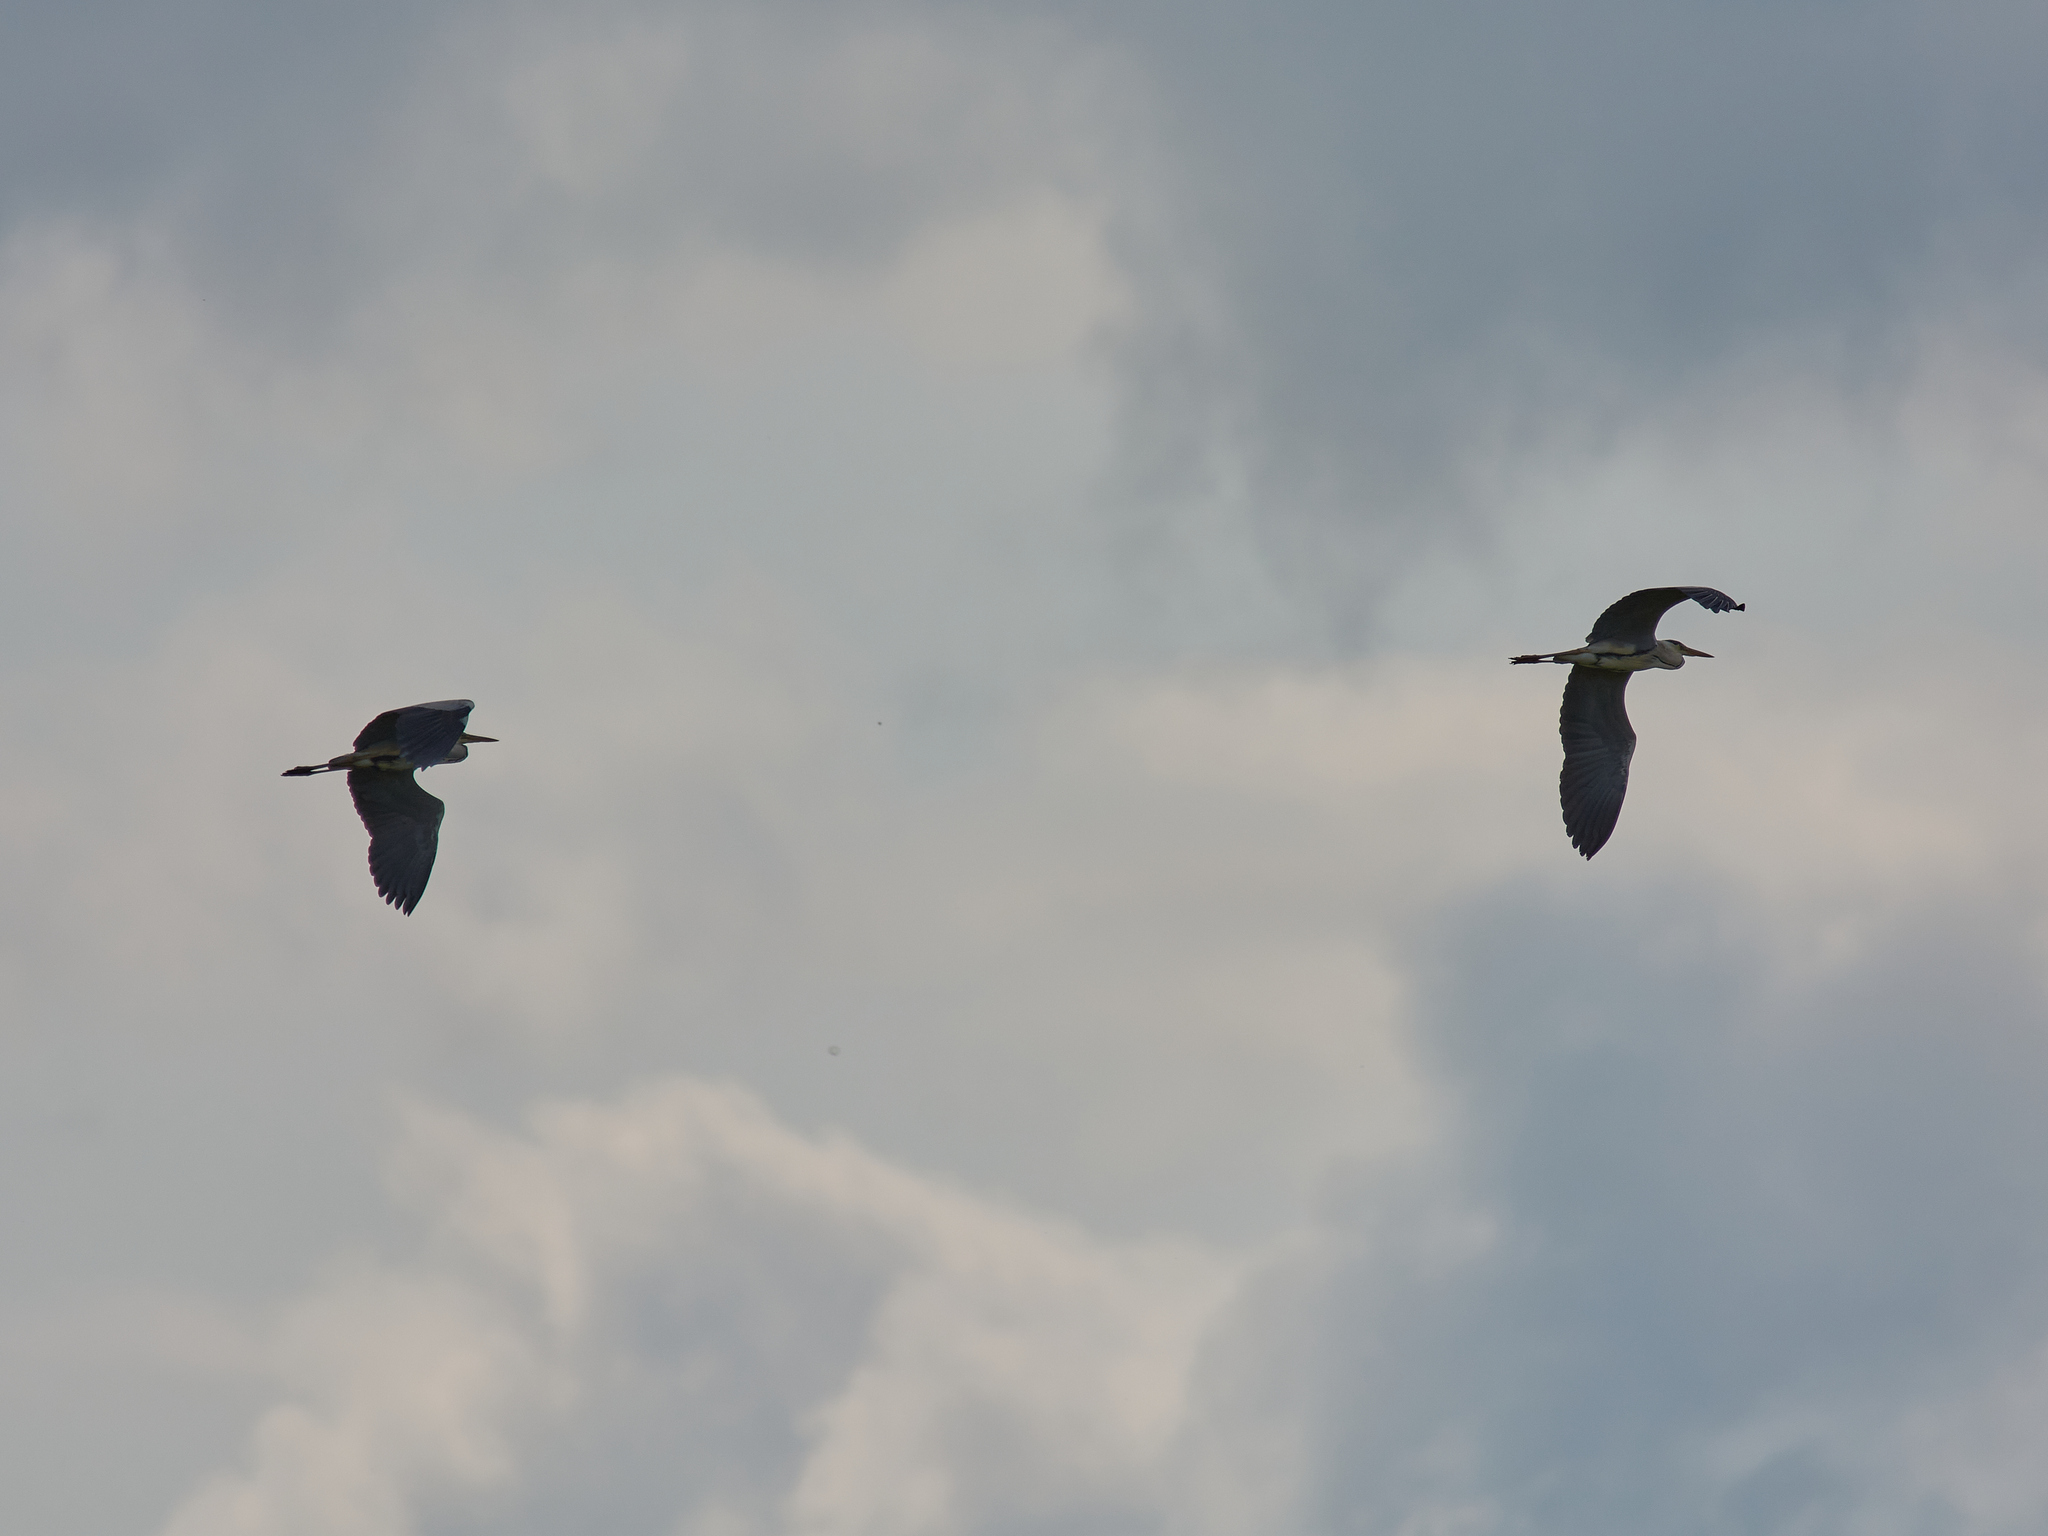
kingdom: Animalia
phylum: Chordata
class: Aves
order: Pelecaniformes
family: Ardeidae
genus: Ardea
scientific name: Ardea cinerea
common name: Grey heron
